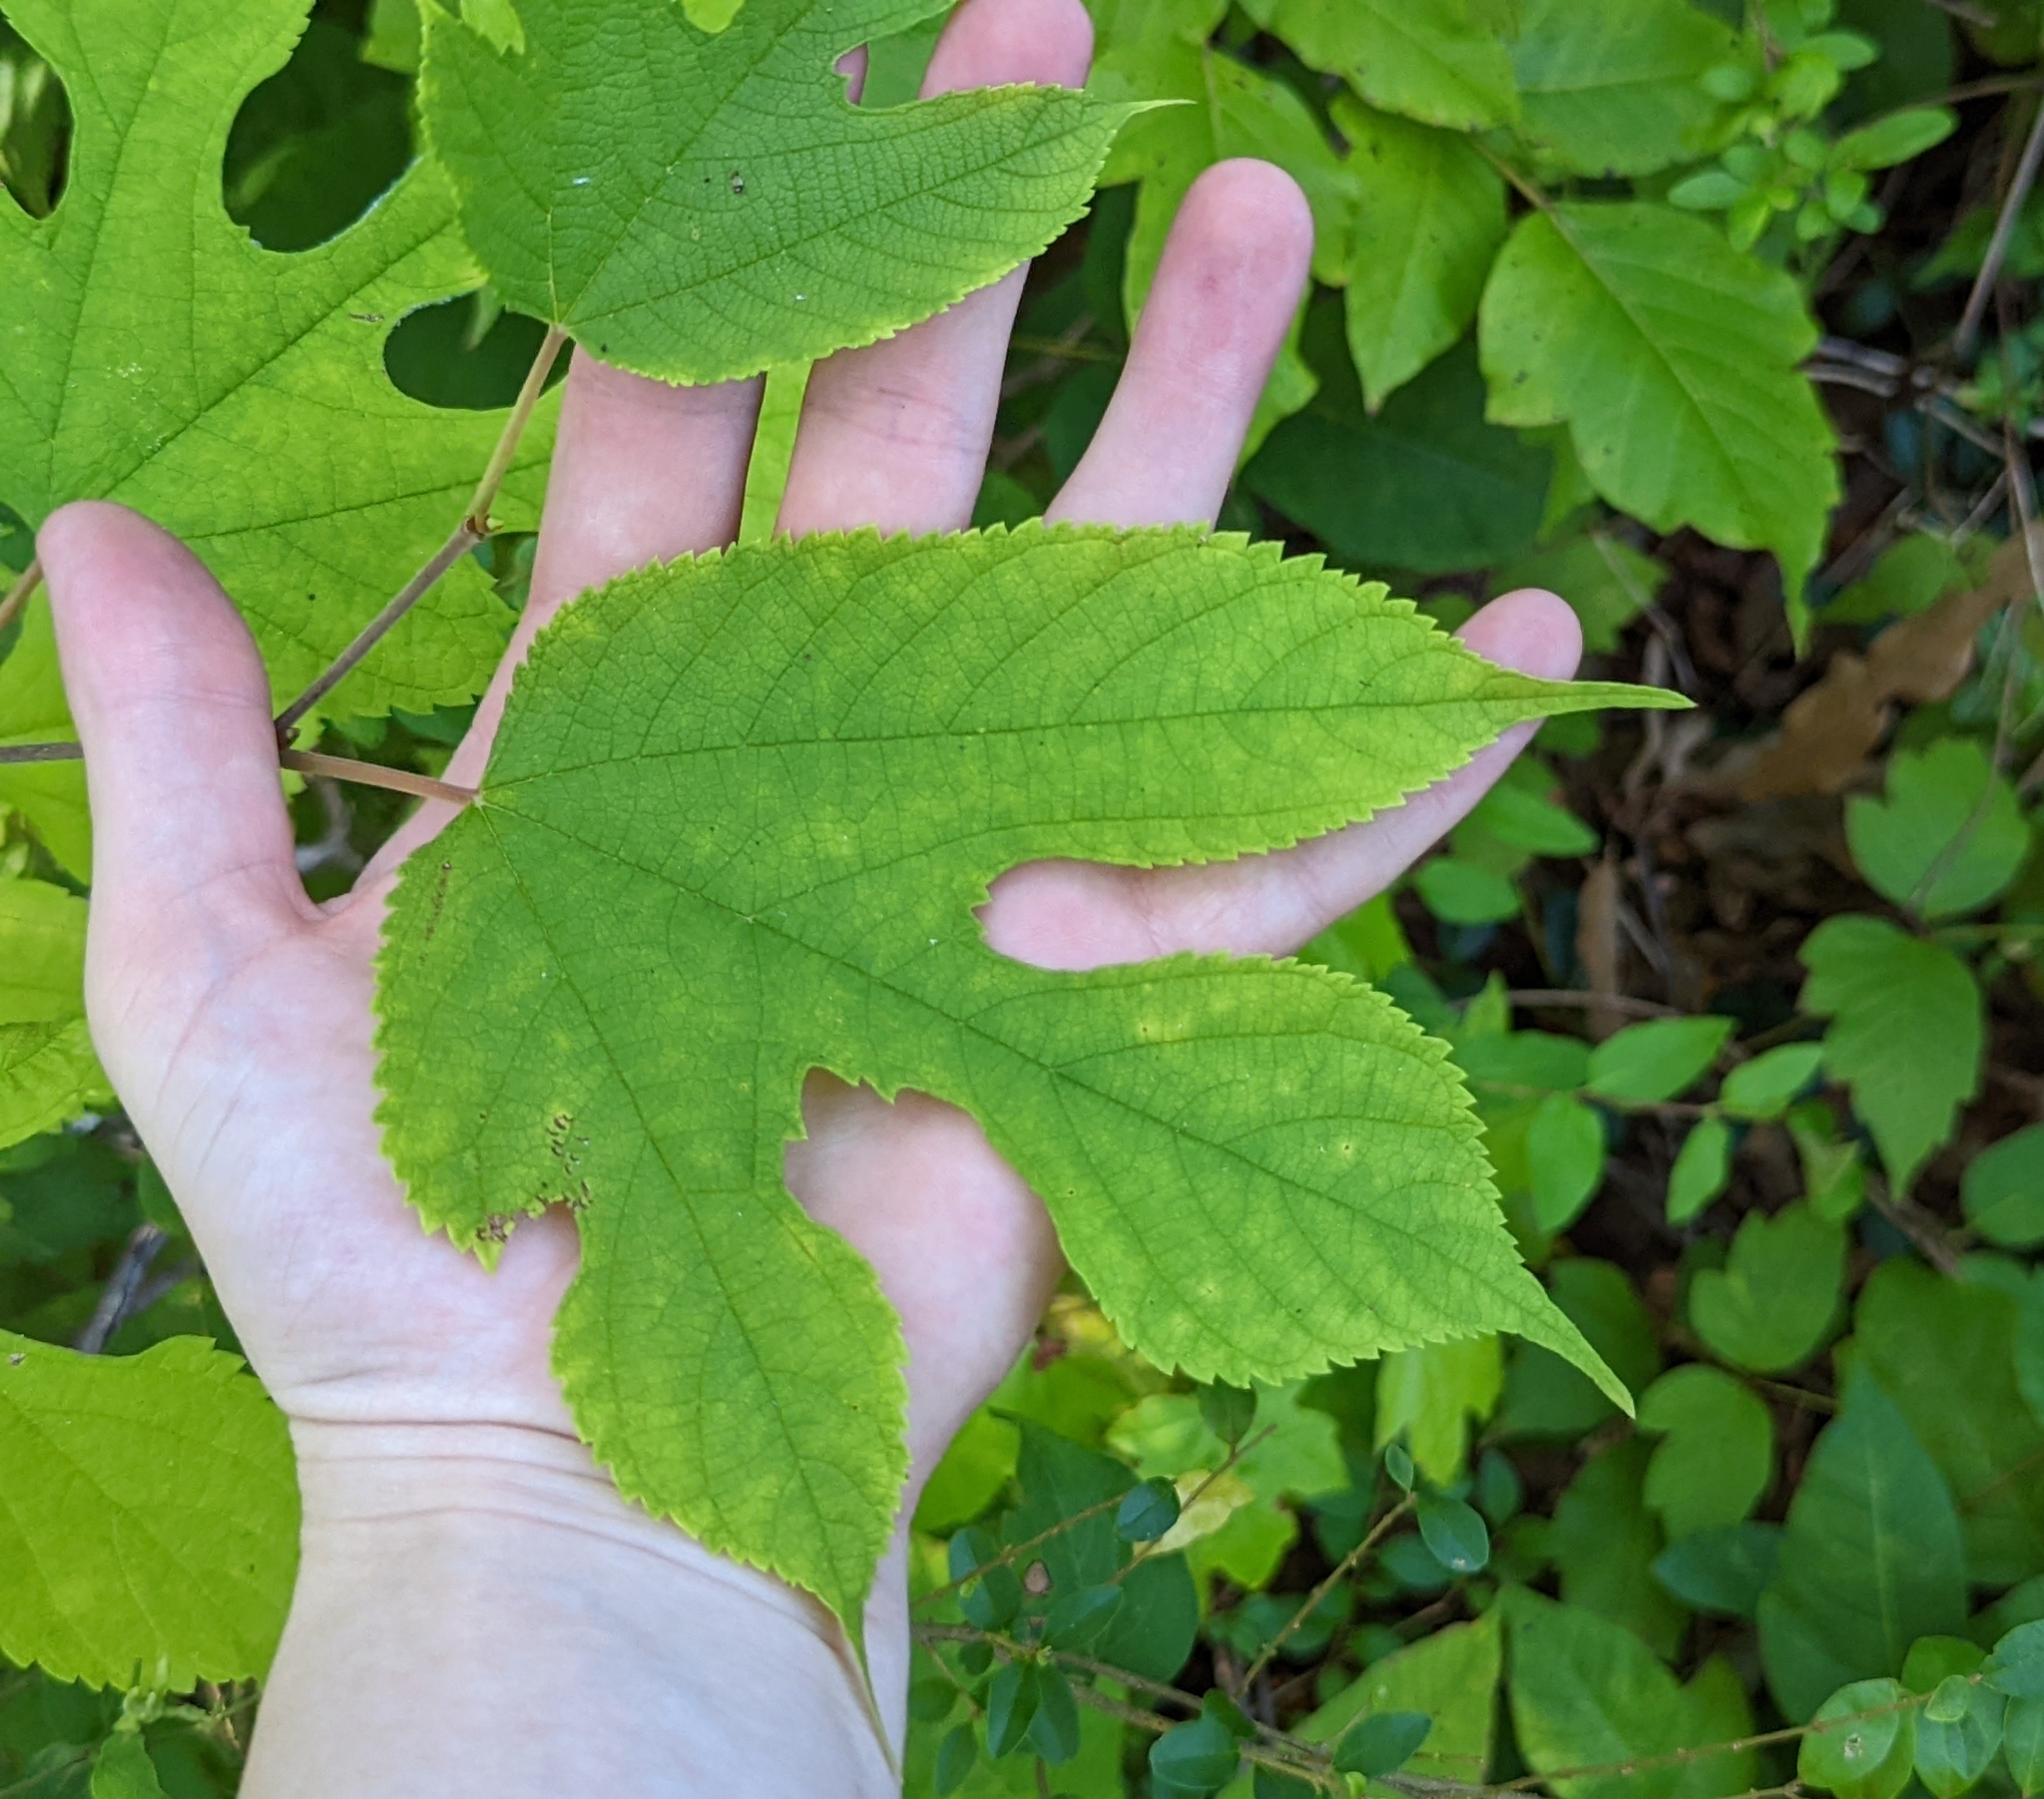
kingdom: Plantae
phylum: Tracheophyta
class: Magnoliopsida
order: Rosales
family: Moraceae
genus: Morus
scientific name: Morus rubra
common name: Red mulberry
